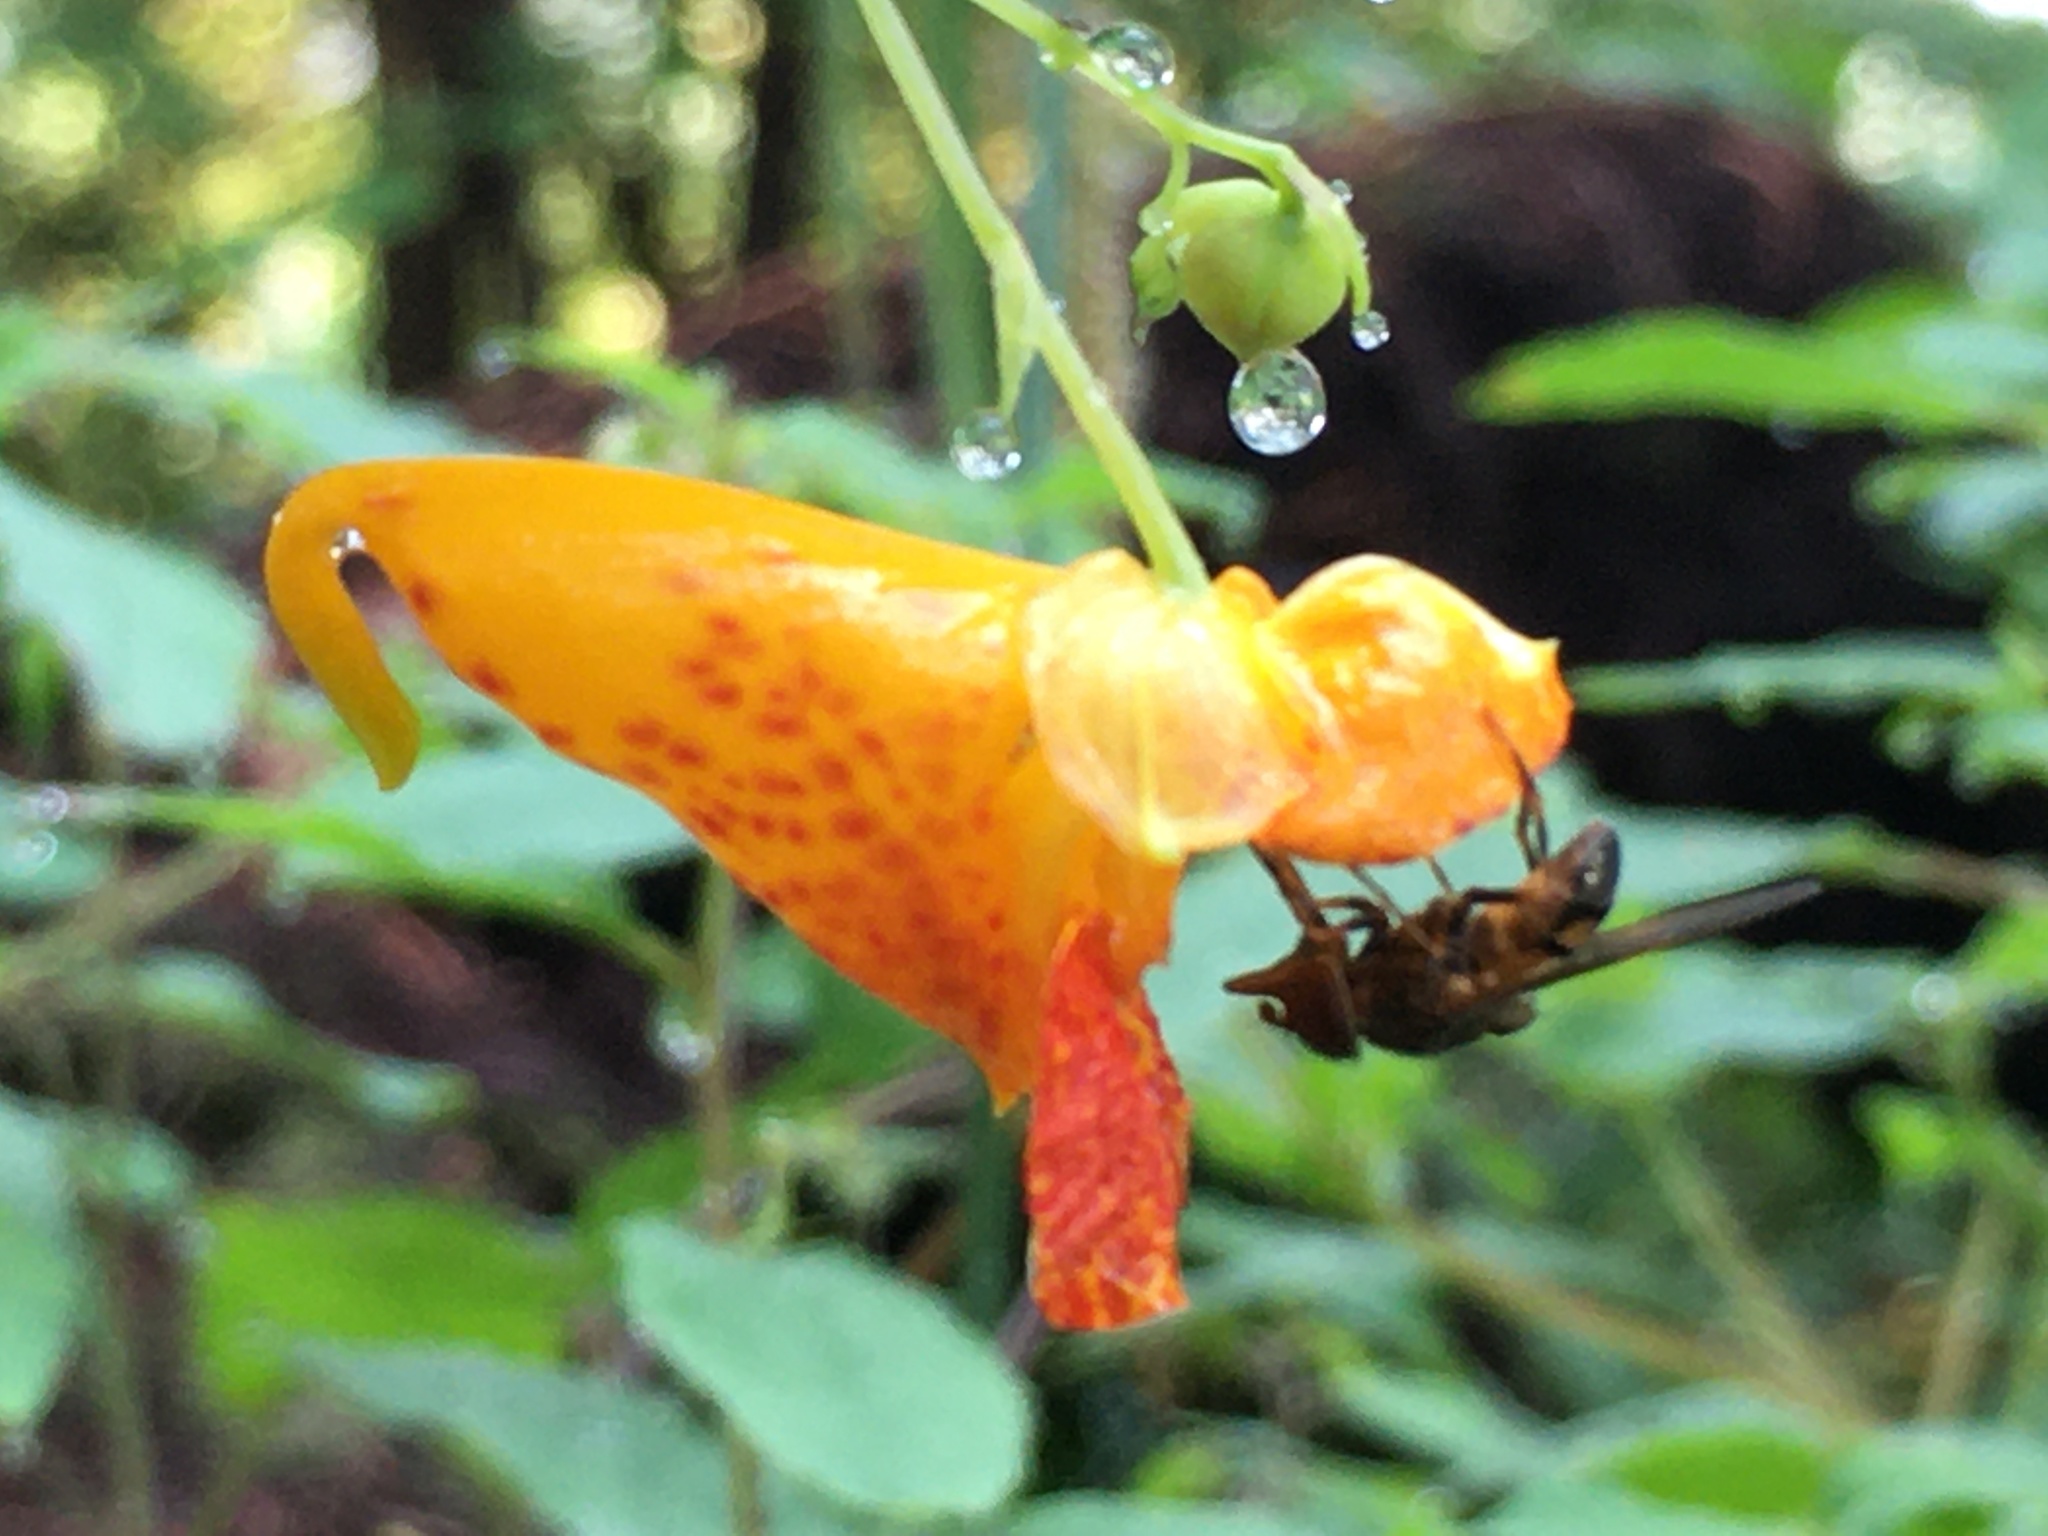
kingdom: Animalia
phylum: Arthropoda
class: Insecta
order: Diptera
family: Syrphidae
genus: Rhingia
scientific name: Rhingia nasica
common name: American snout fly
